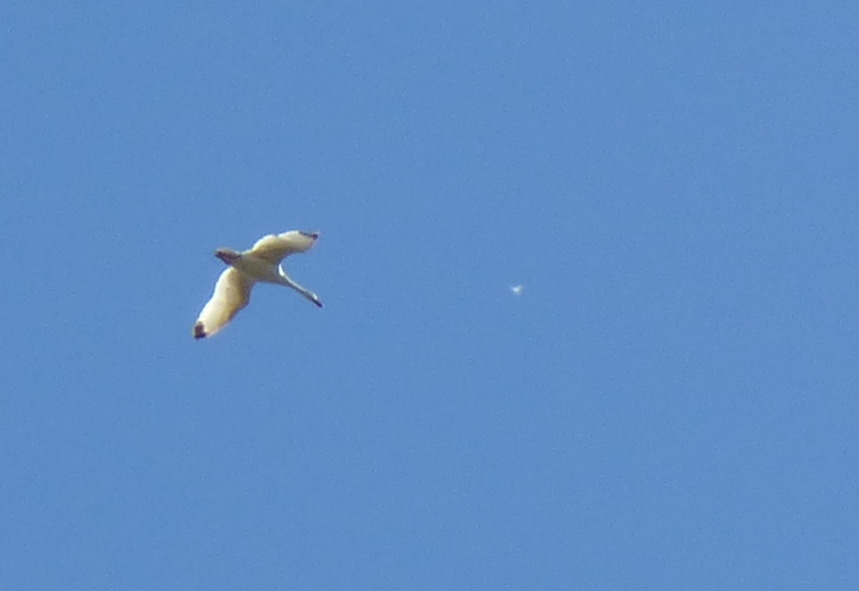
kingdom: Animalia
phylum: Chordata
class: Aves
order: Anseriformes
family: Anatidae
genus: Coscoroba
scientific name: Coscoroba coscoroba
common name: Coscoroba swan
